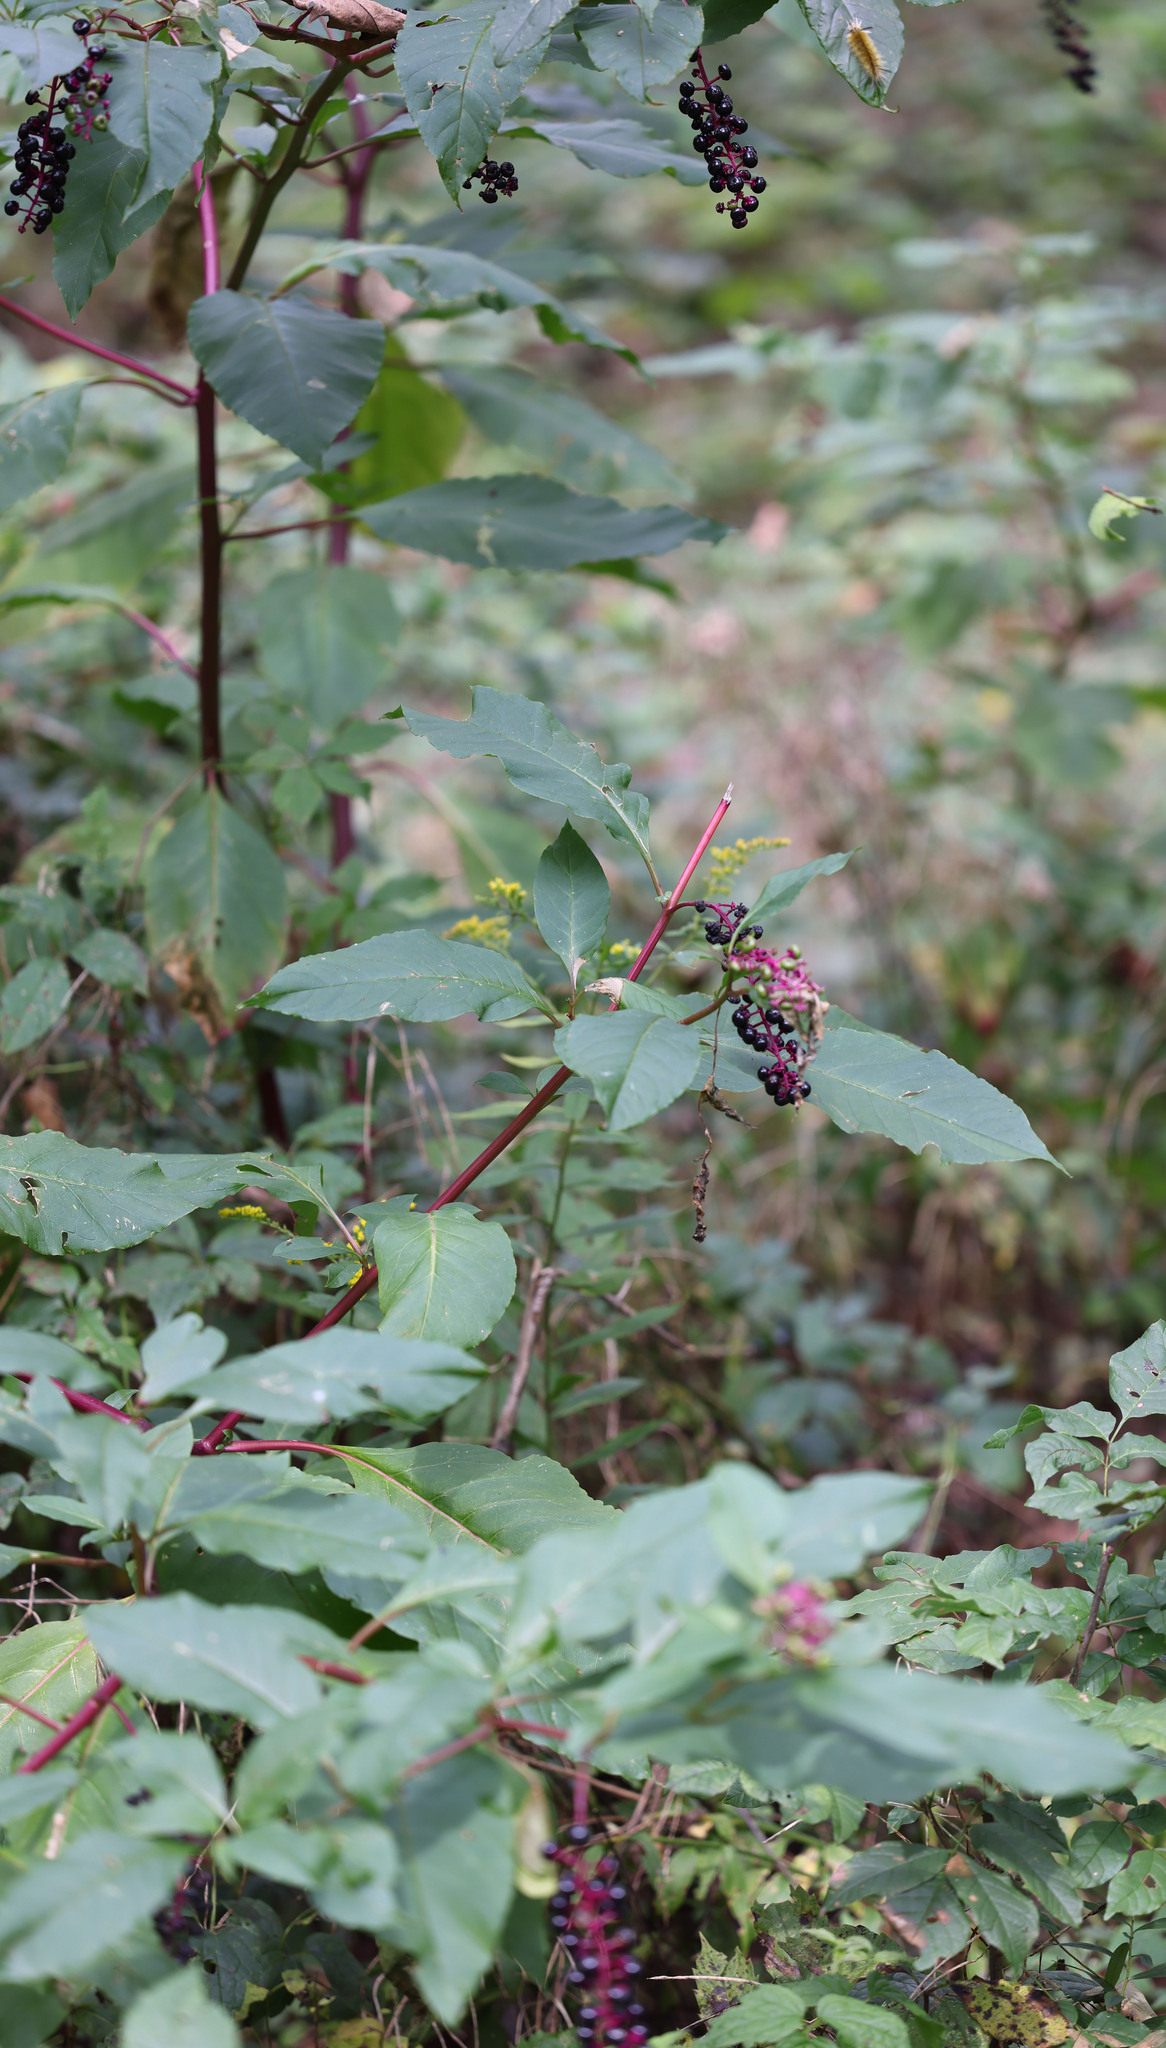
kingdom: Plantae
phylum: Tracheophyta
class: Magnoliopsida
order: Caryophyllales
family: Phytolaccaceae
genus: Phytolacca
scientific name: Phytolacca americana
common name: American pokeweed
